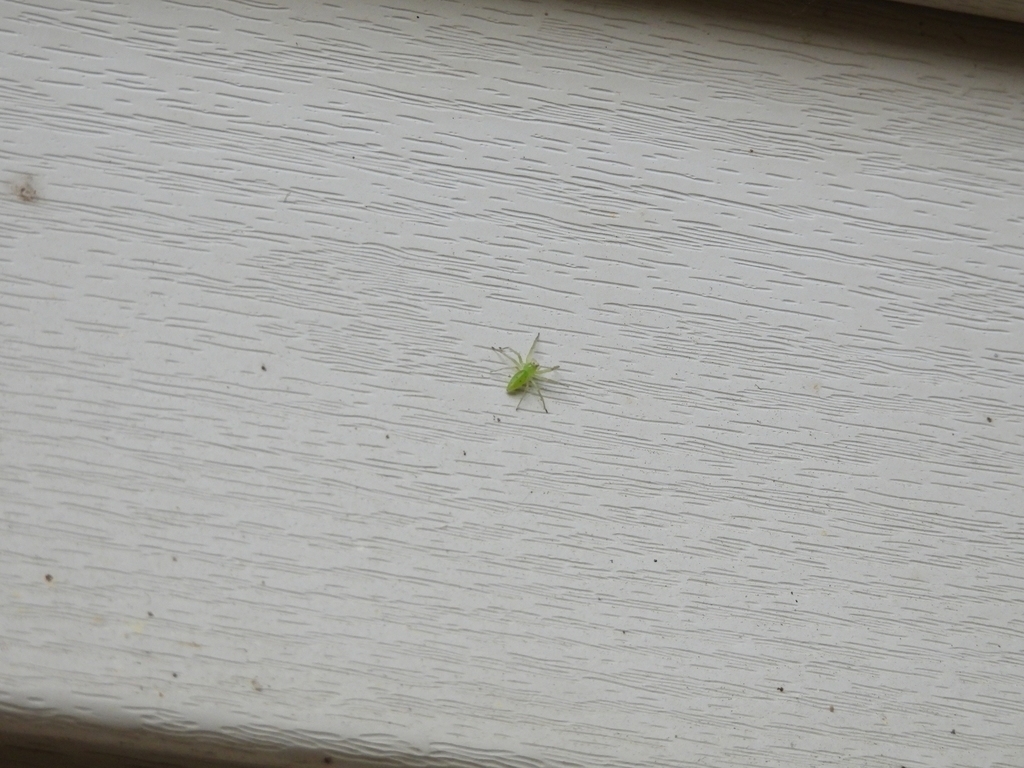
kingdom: Animalia
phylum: Arthropoda
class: Arachnida
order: Araneae
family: Salticidae
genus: Lyssomanes
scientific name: Lyssomanes viridis
